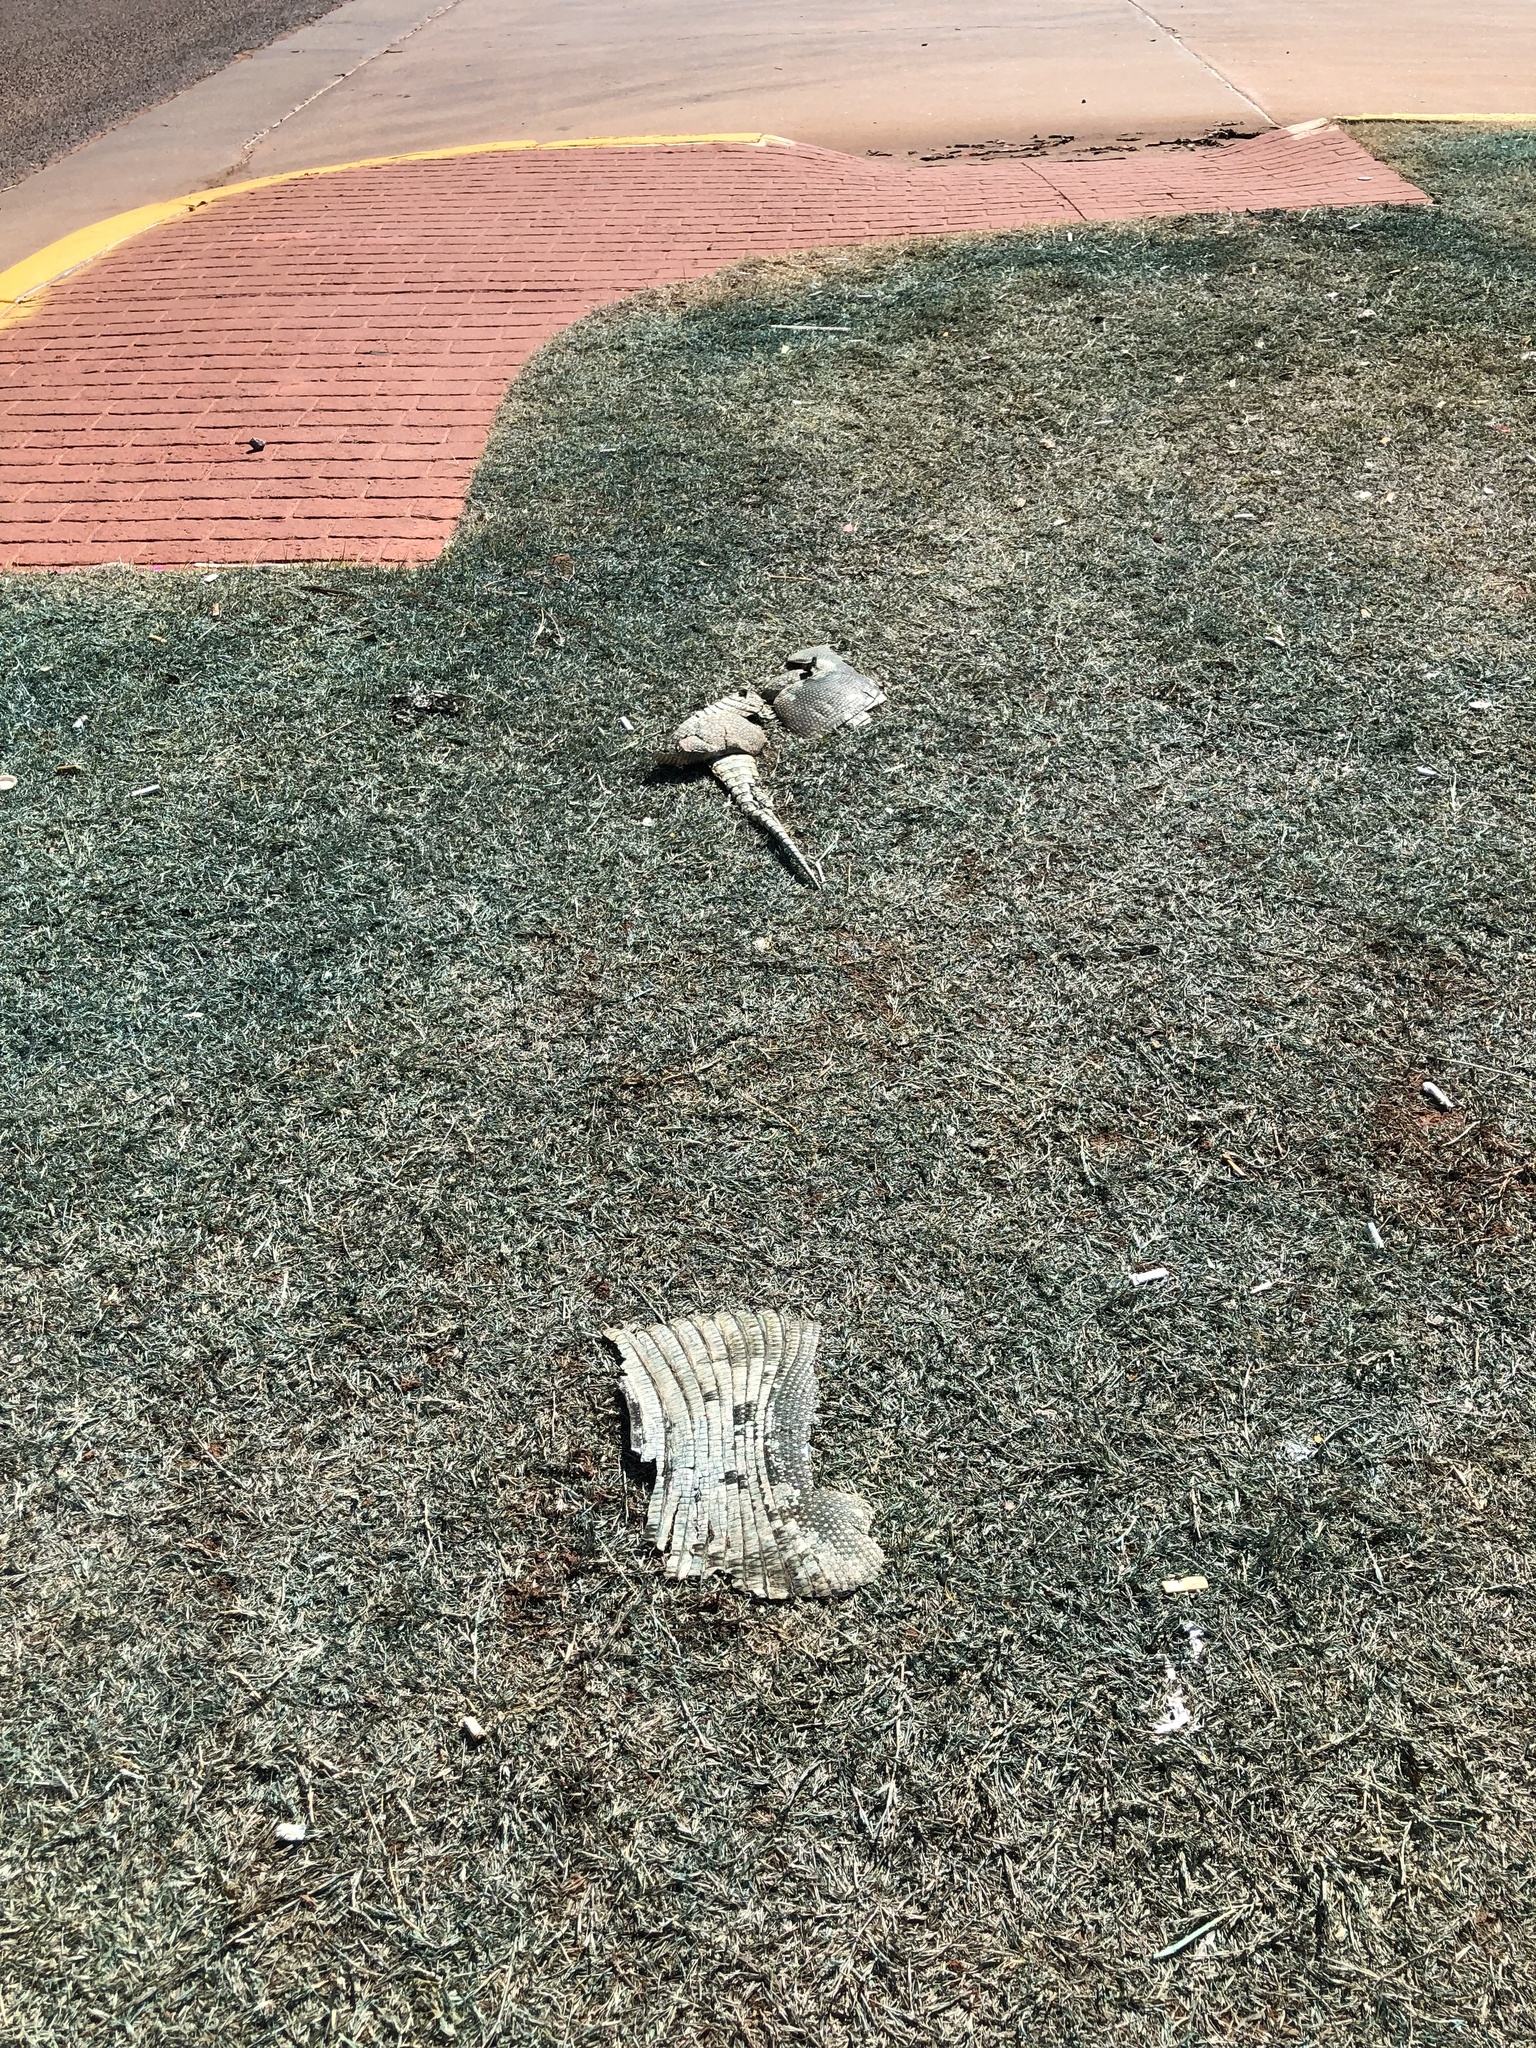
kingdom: Animalia
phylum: Chordata
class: Mammalia
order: Cingulata
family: Dasypodidae
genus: Dasypus
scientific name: Dasypus novemcinctus
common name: Nine-banded armadillo
